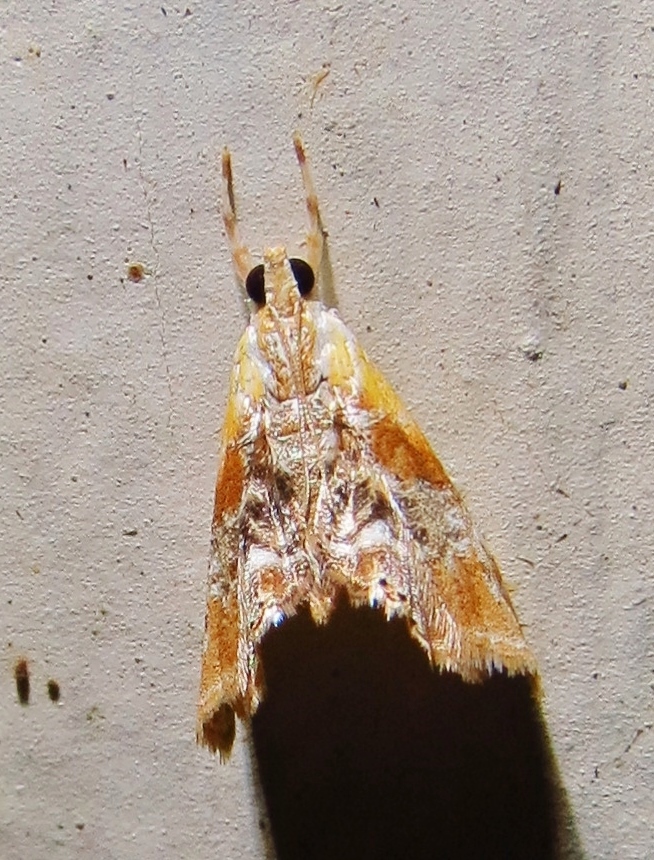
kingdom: Animalia
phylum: Arthropoda
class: Insecta
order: Lepidoptera
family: Crambidae
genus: Dicymolomia
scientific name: Dicymolomia julianalis
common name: Julia's dicymolomia moth
